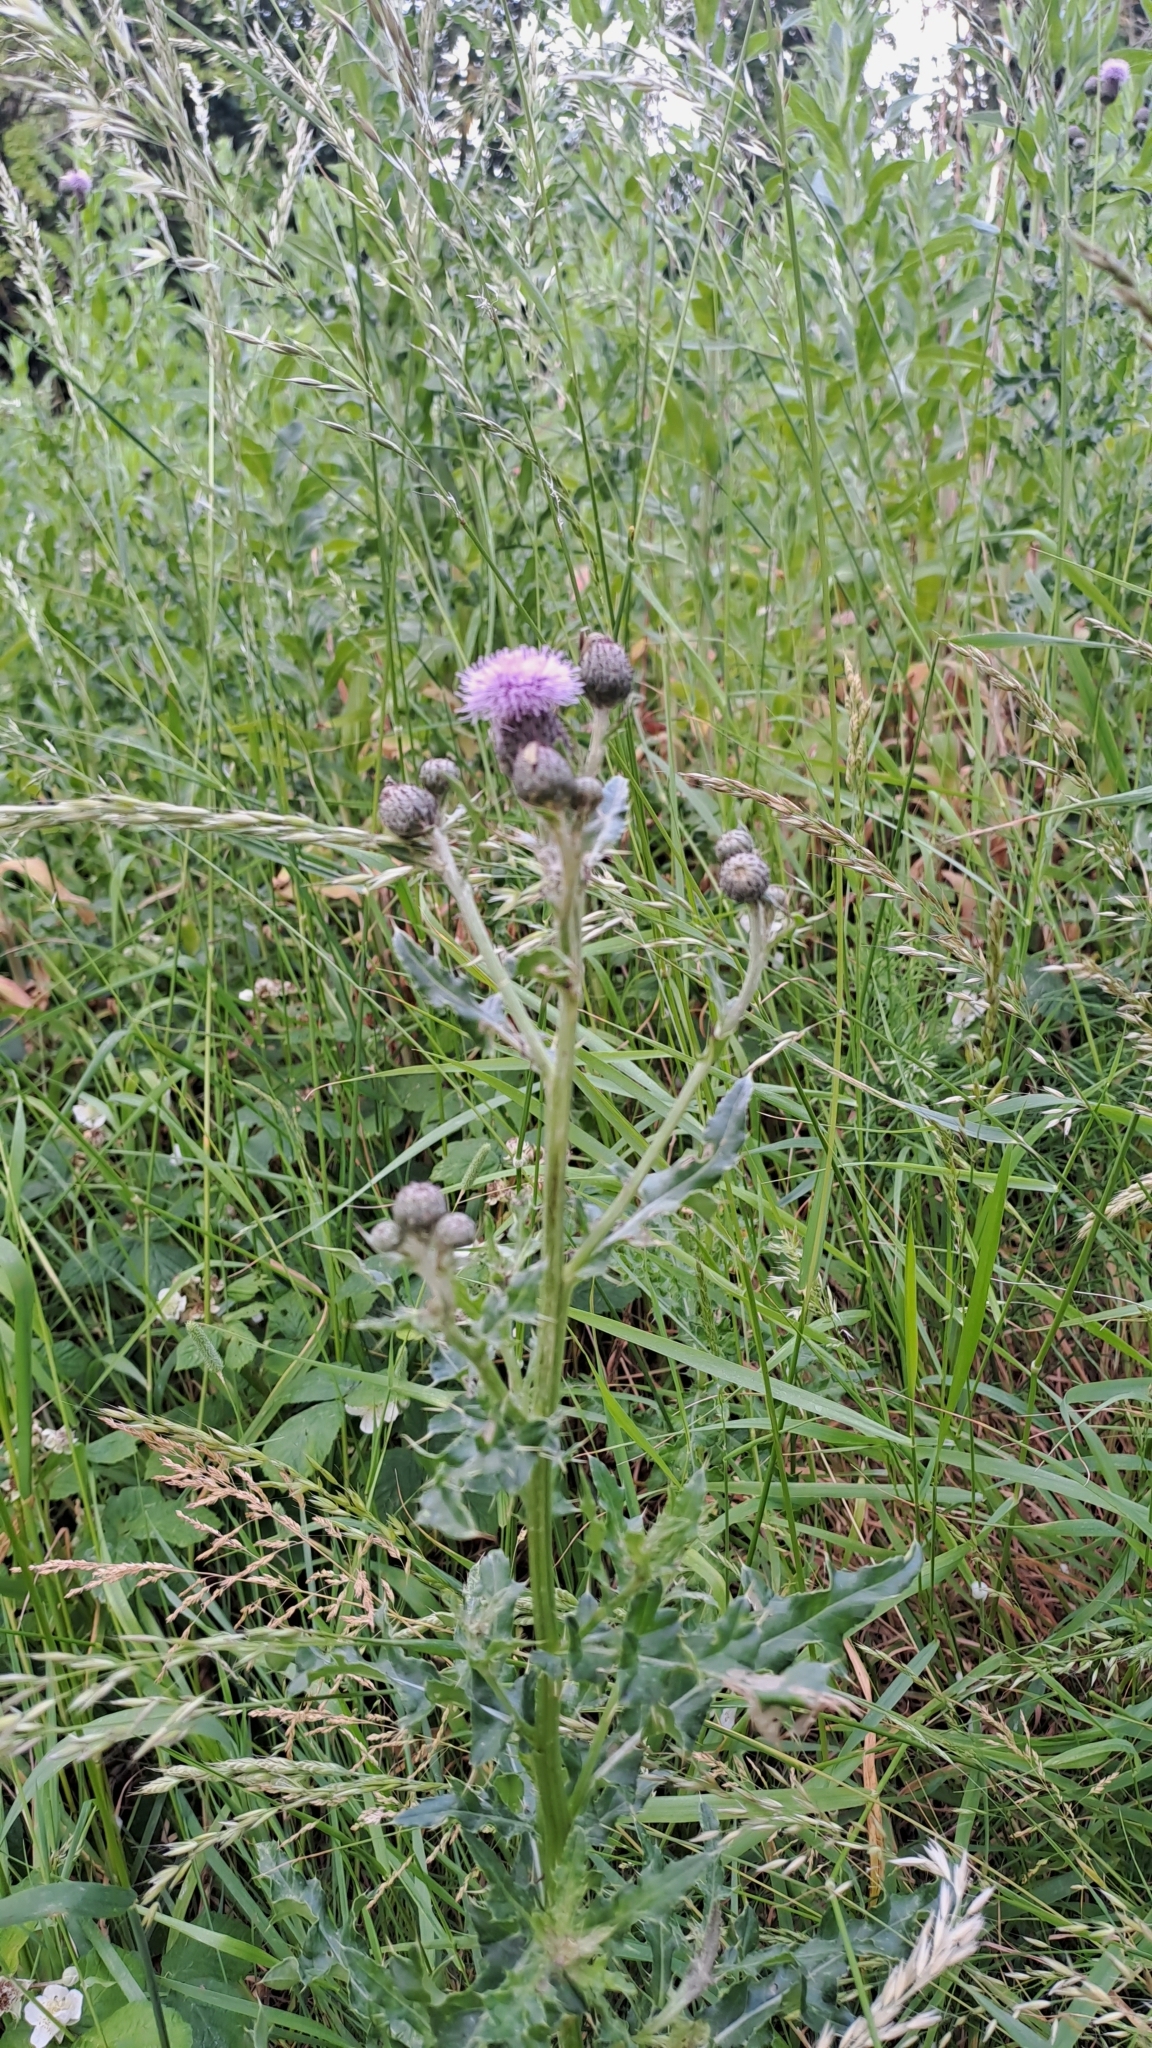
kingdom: Plantae
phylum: Tracheophyta
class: Magnoliopsida
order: Asterales
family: Asteraceae
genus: Cirsium
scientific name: Cirsium arvense
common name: Creeping thistle
